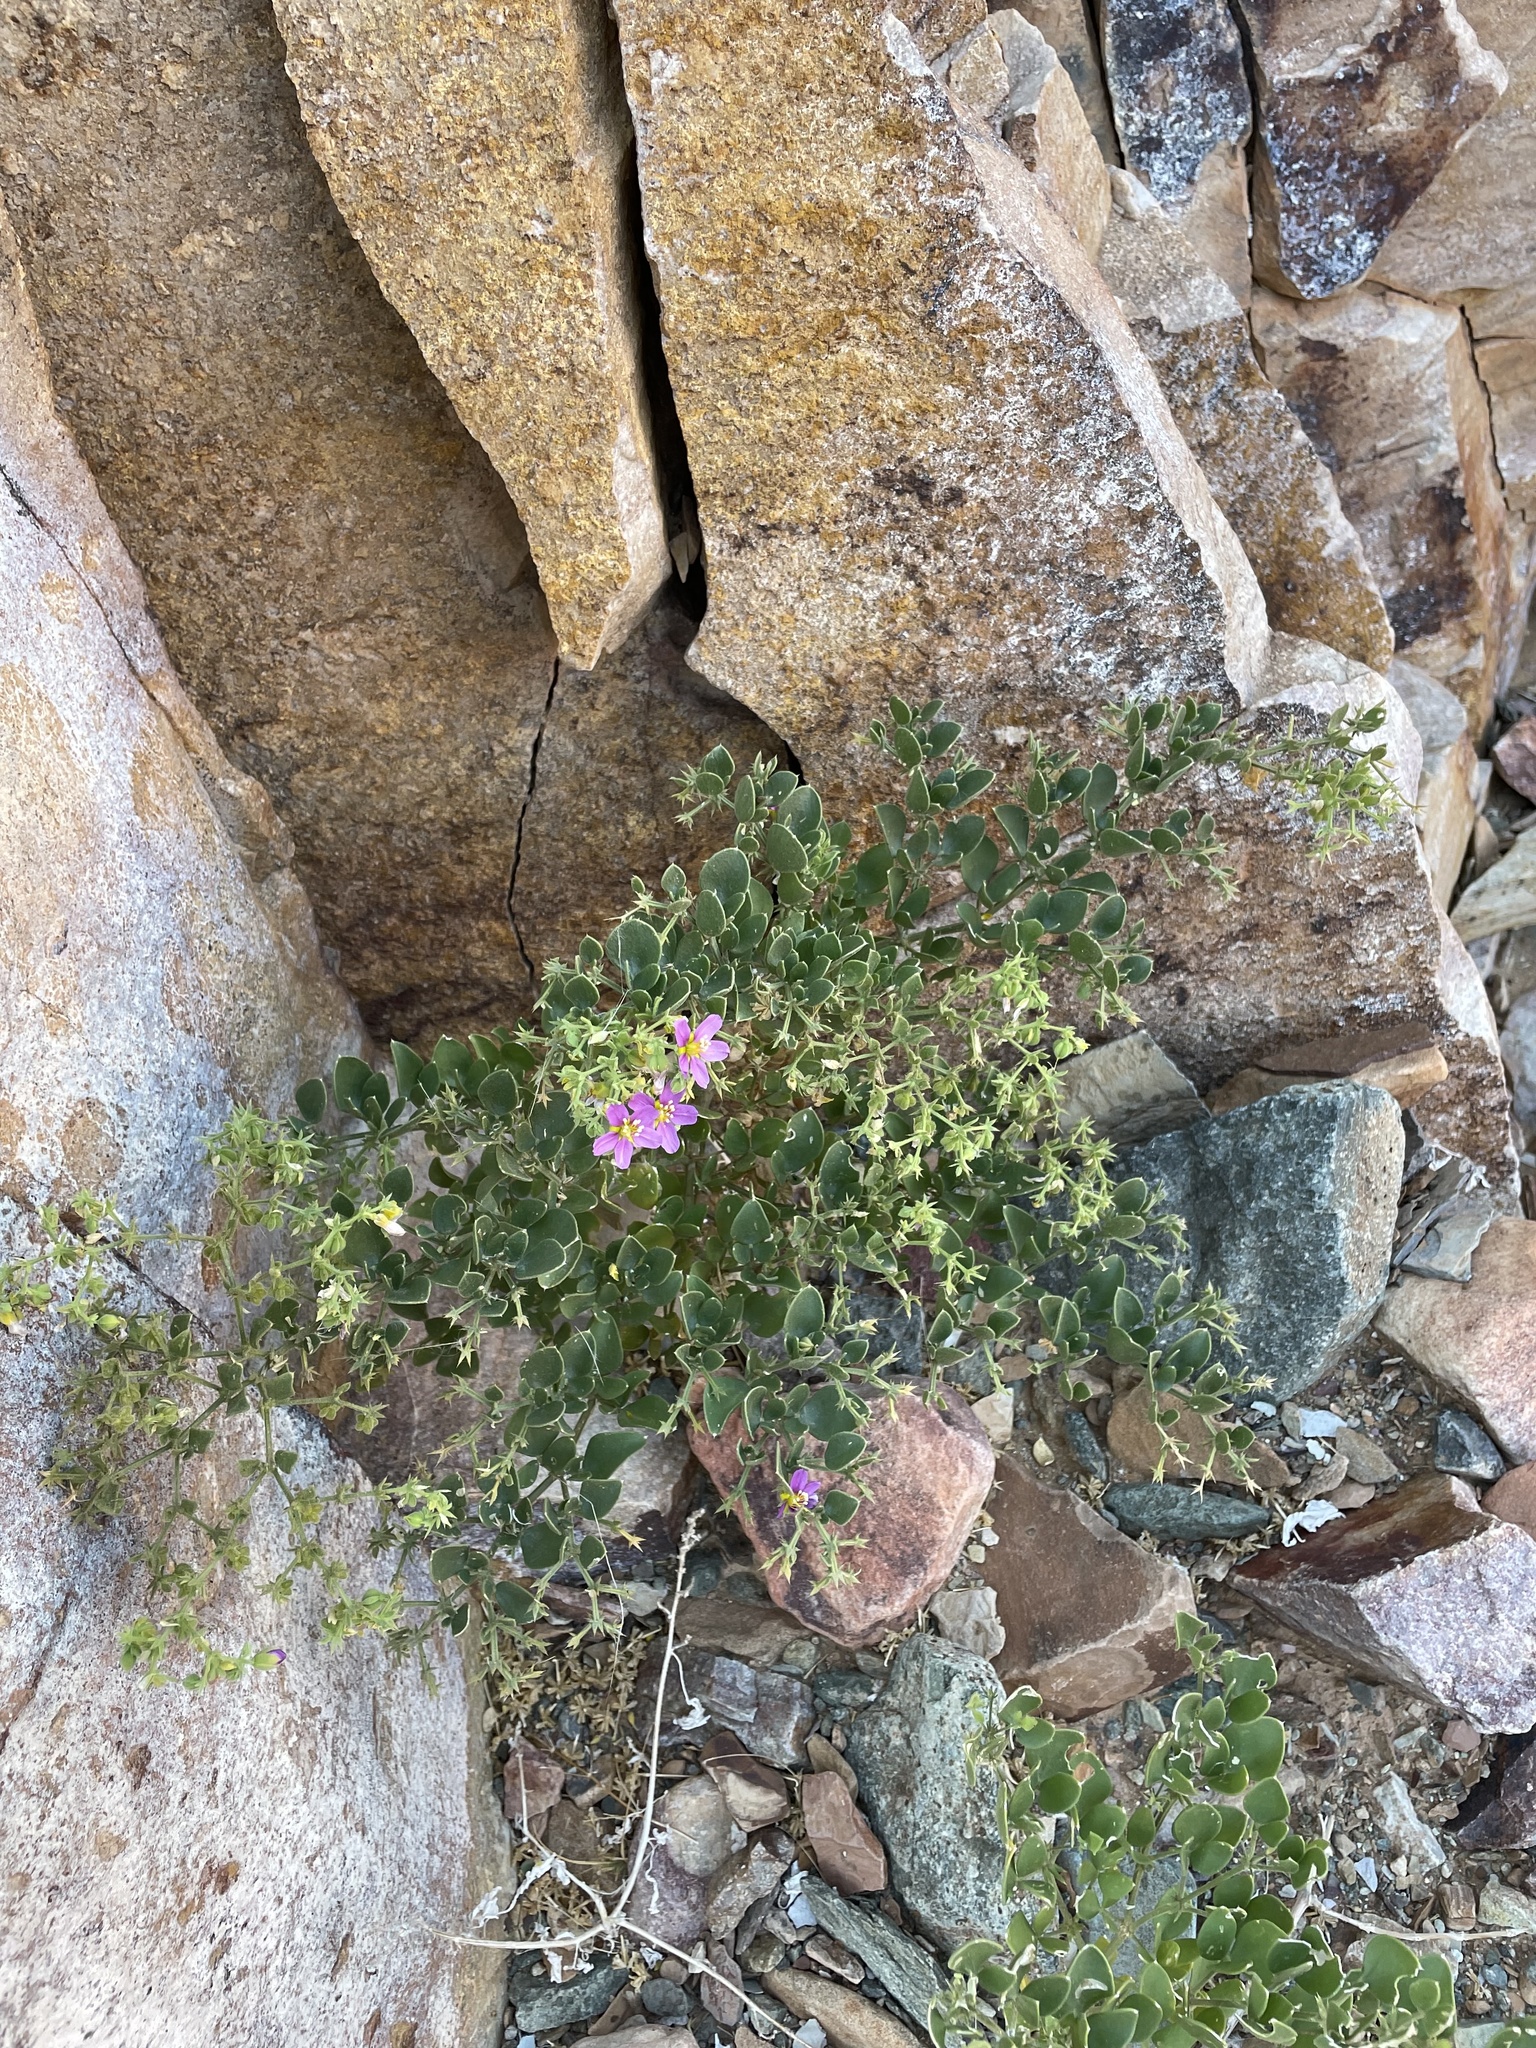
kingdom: Plantae
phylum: Tracheophyta
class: Magnoliopsida
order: Zygophyllales
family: Zygophyllaceae
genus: Fagonia
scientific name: Fagonia capensis
